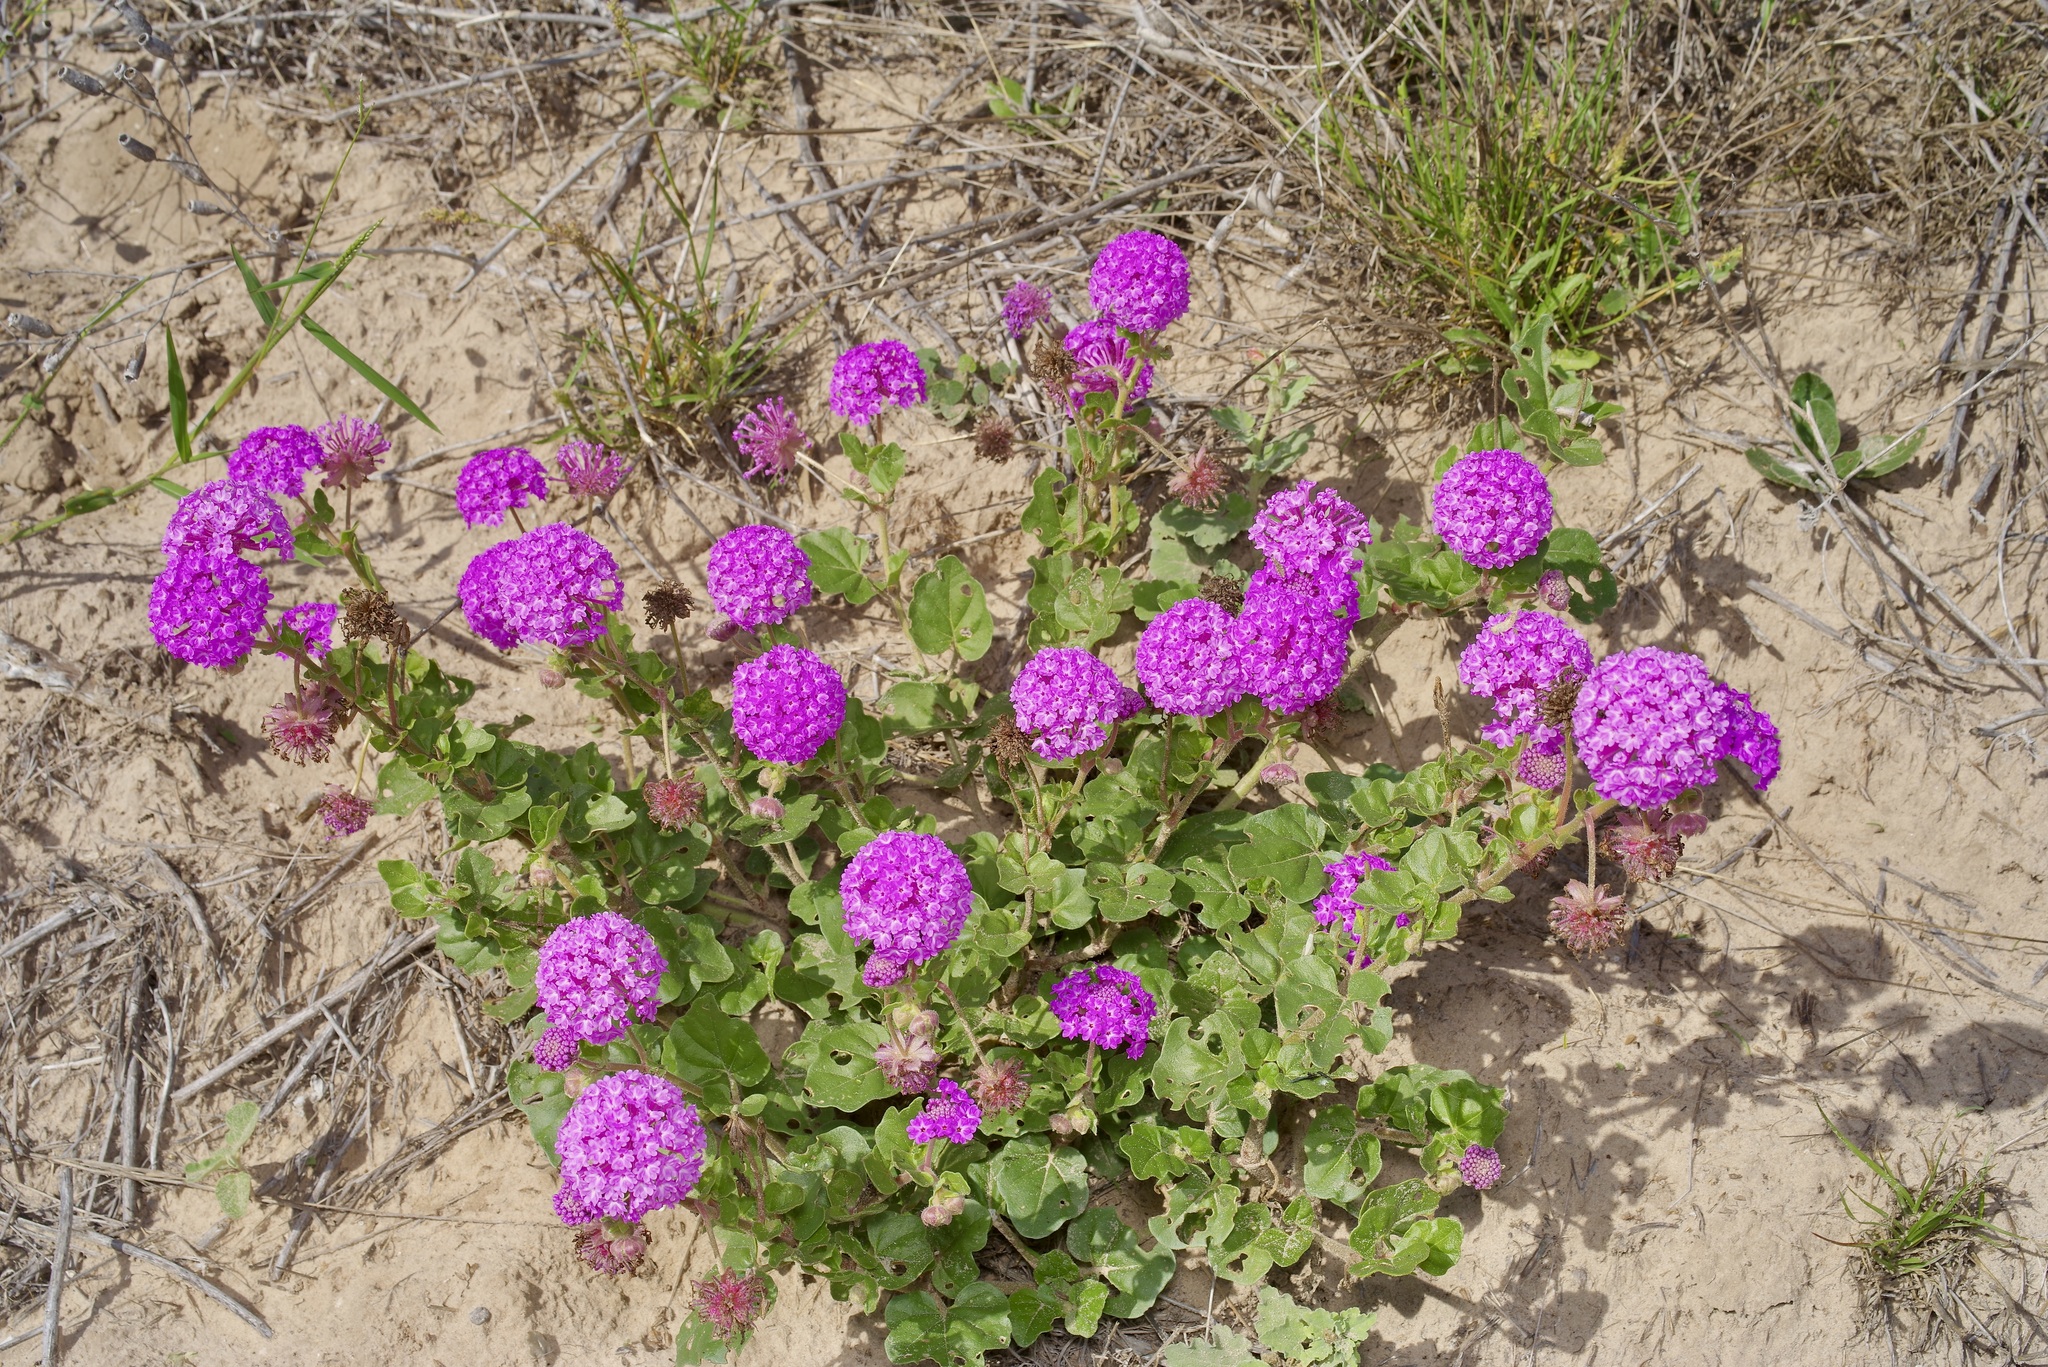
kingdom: Plantae
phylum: Tracheophyta
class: Magnoliopsida
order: Caryophyllales
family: Nyctaginaceae
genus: Abronia
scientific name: Abronia ameliae
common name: Amelia's sand-verbena
